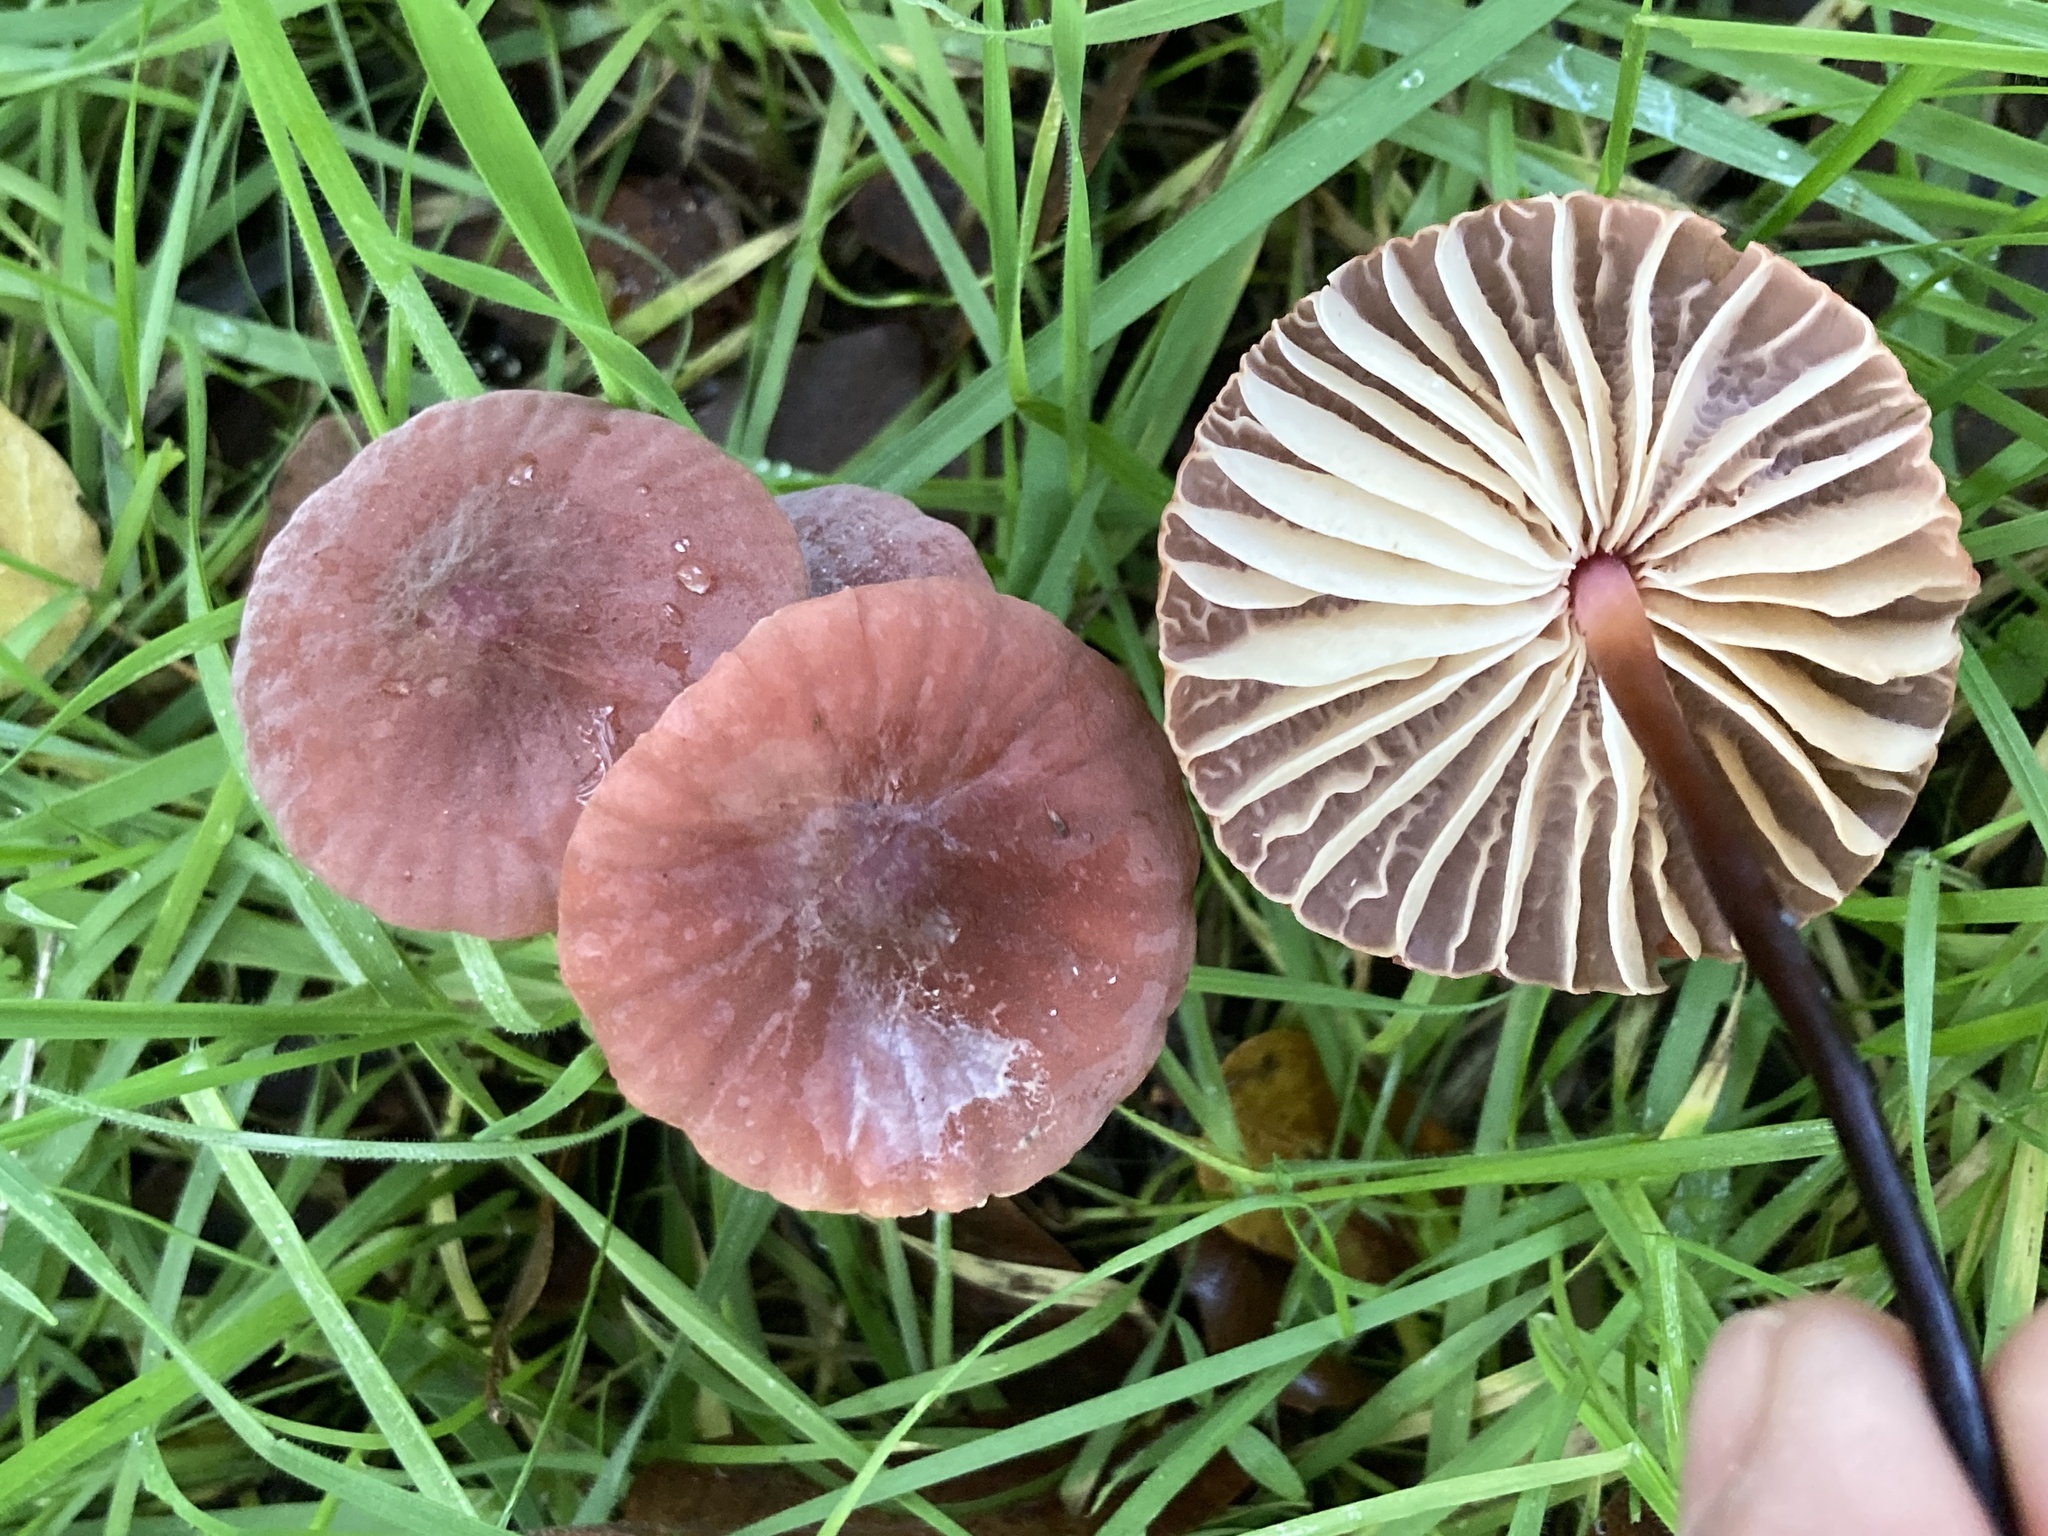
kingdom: Fungi
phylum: Basidiomycota
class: Agaricomycetes
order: Agaricales
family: Marasmiaceae
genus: Marasmius
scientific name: Marasmius plicatulus
